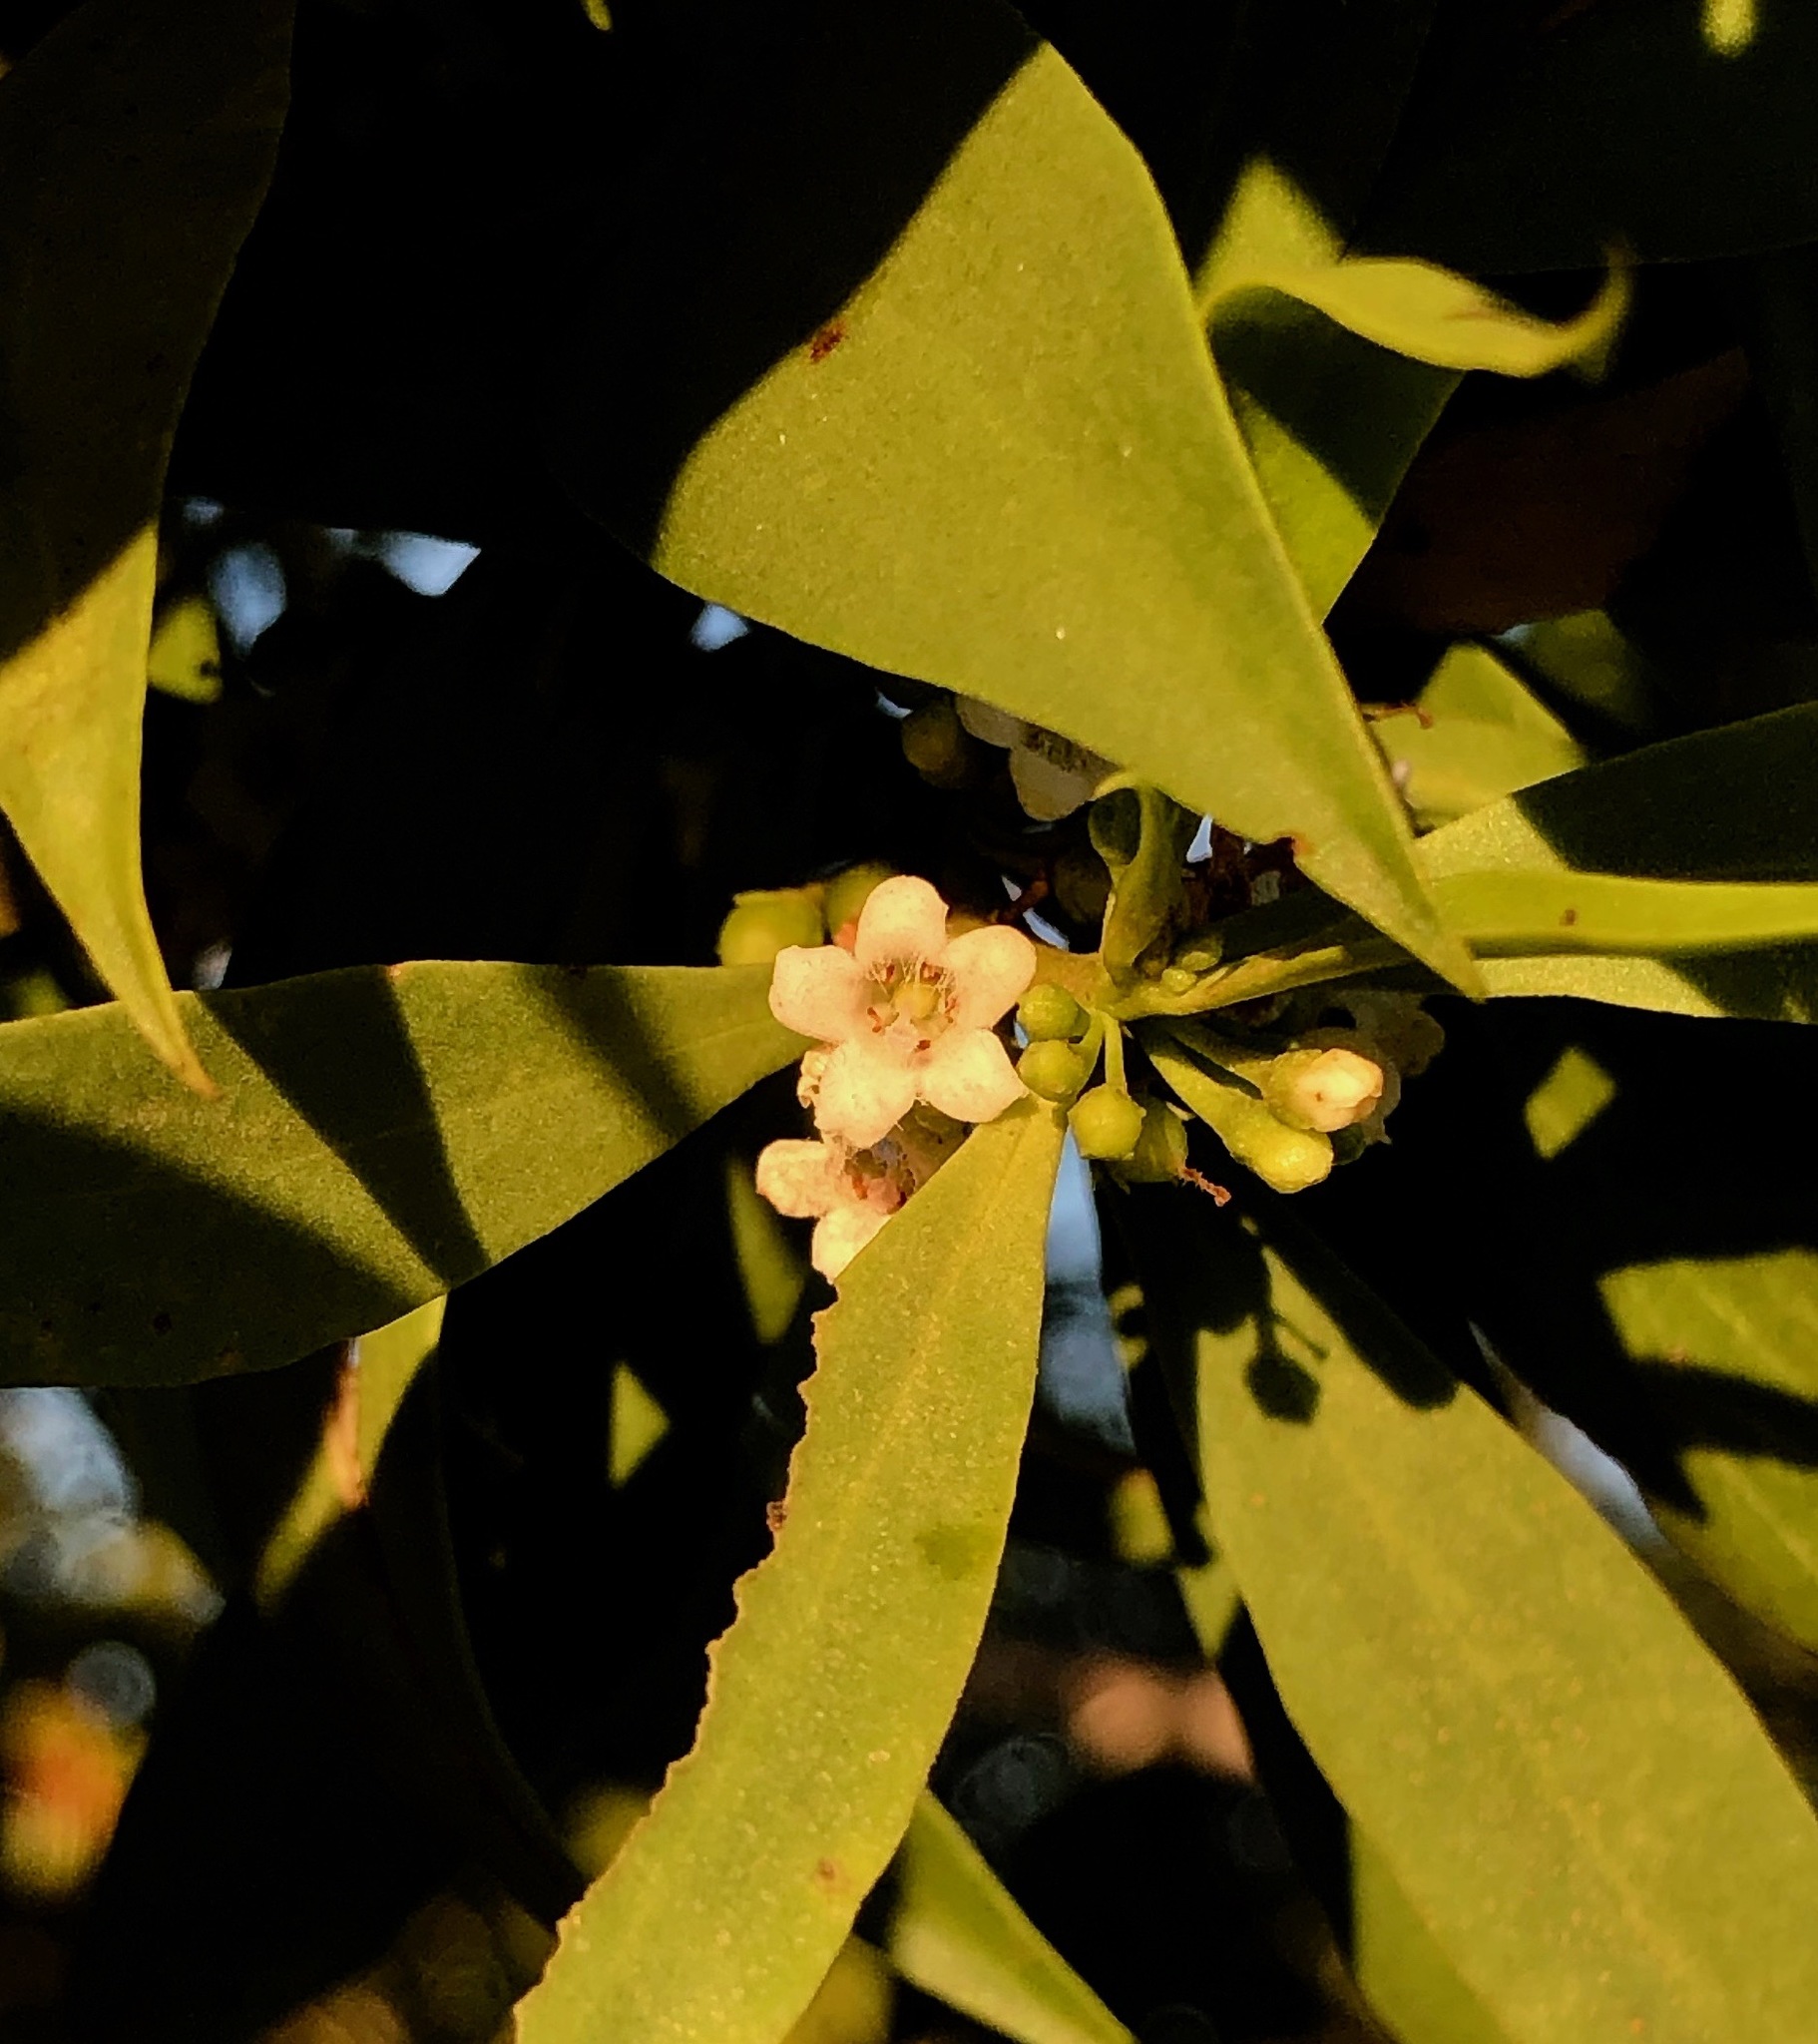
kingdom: Plantae
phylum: Tracheophyta
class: Magnoliopsida
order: Lamiales
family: Scrophulariaceae
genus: Myoporum
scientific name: Myoporum montanum
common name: Waterbush
